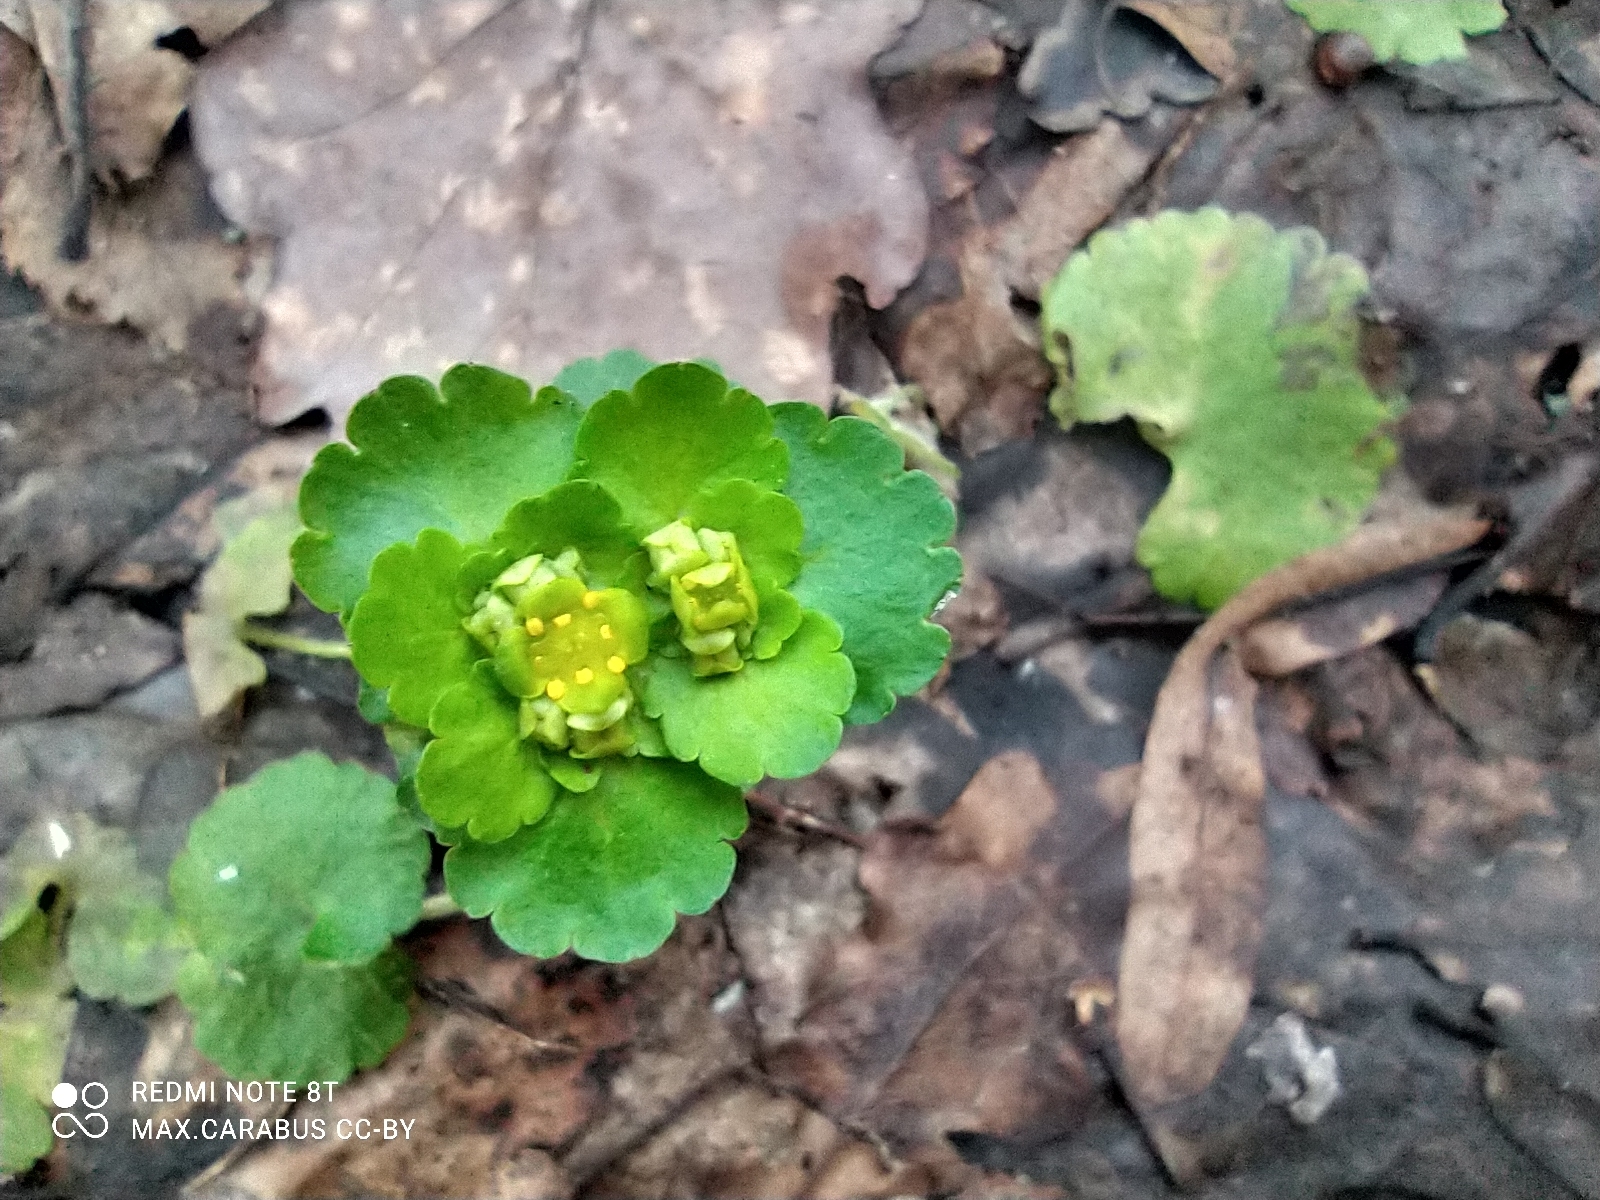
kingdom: Plantae
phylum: Tracheophyta
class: Magnoliopsida
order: Saxifragales
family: Saxifragaceae
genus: Chrysosplenium
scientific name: Chrysosplenium alternifolium
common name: Alternate-leaved golden-saxifrage
